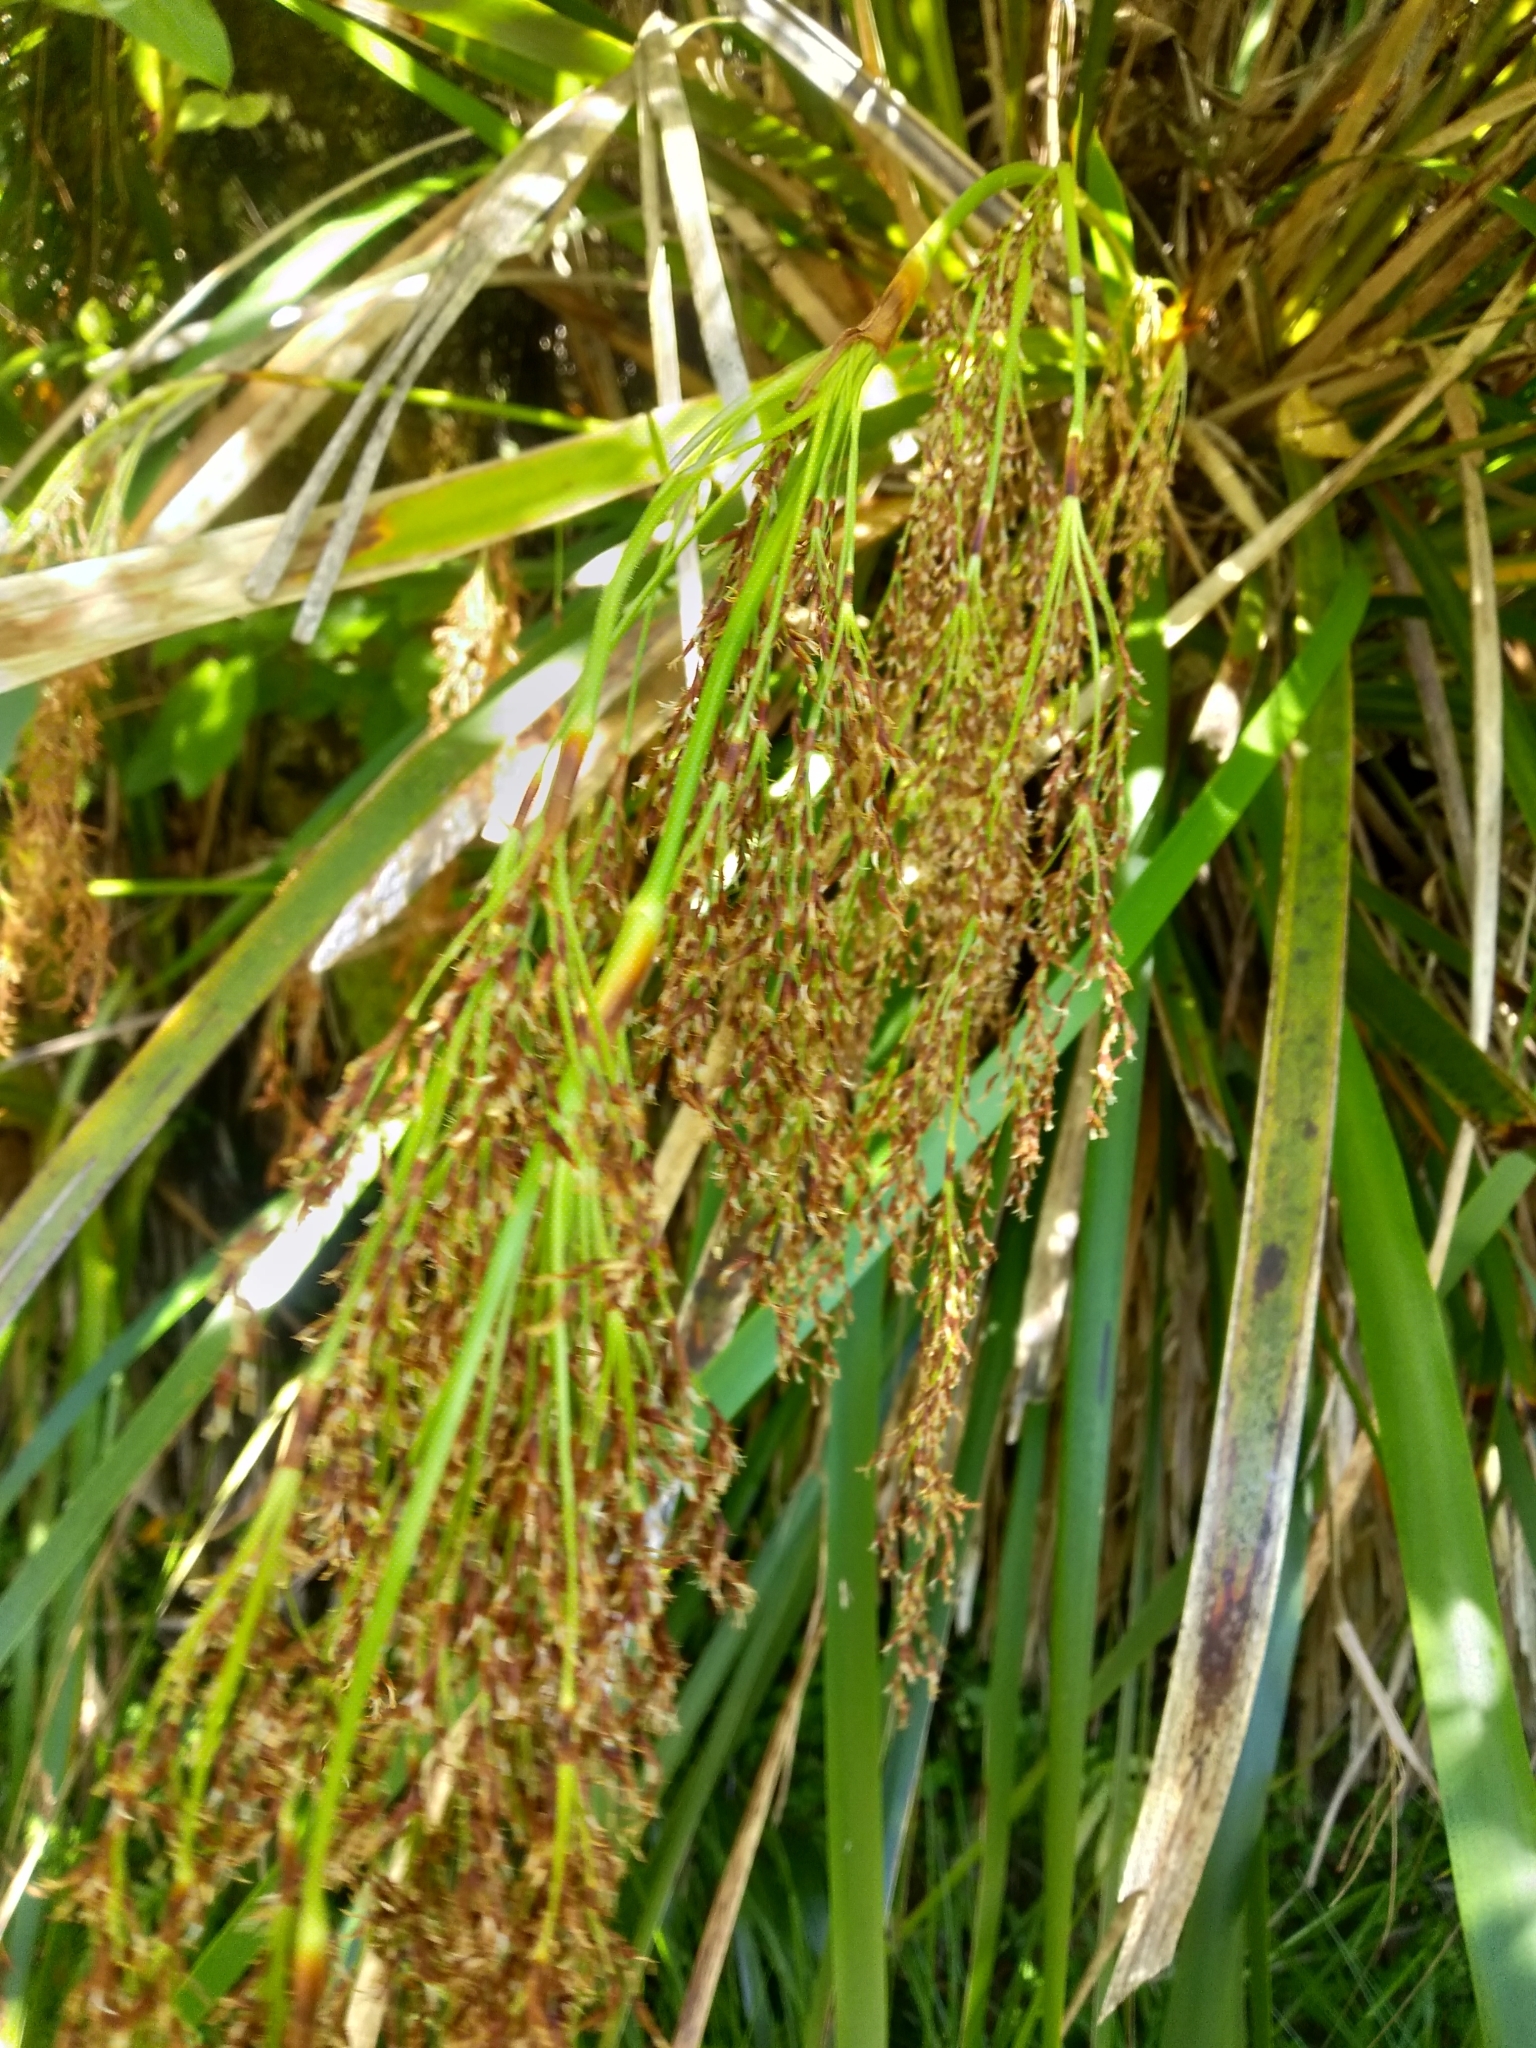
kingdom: Plantae
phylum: Tracheophyta
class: Liliopsida
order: Poales
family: Cyperaceae
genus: Machaerina
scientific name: Machaerina sinclairii
